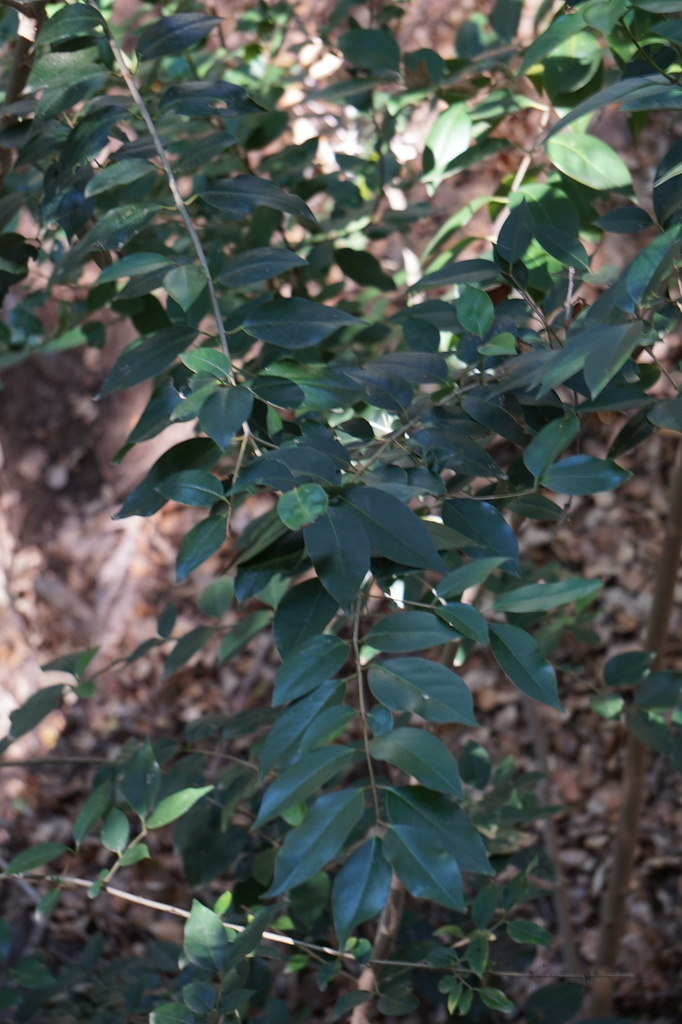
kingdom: Plantae
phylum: Tracheophyta
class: Magnoliopsida
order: Lamiales
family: Oleaceae
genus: Ligustrum
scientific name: Ligustrum lucidum
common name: Glossy privet
